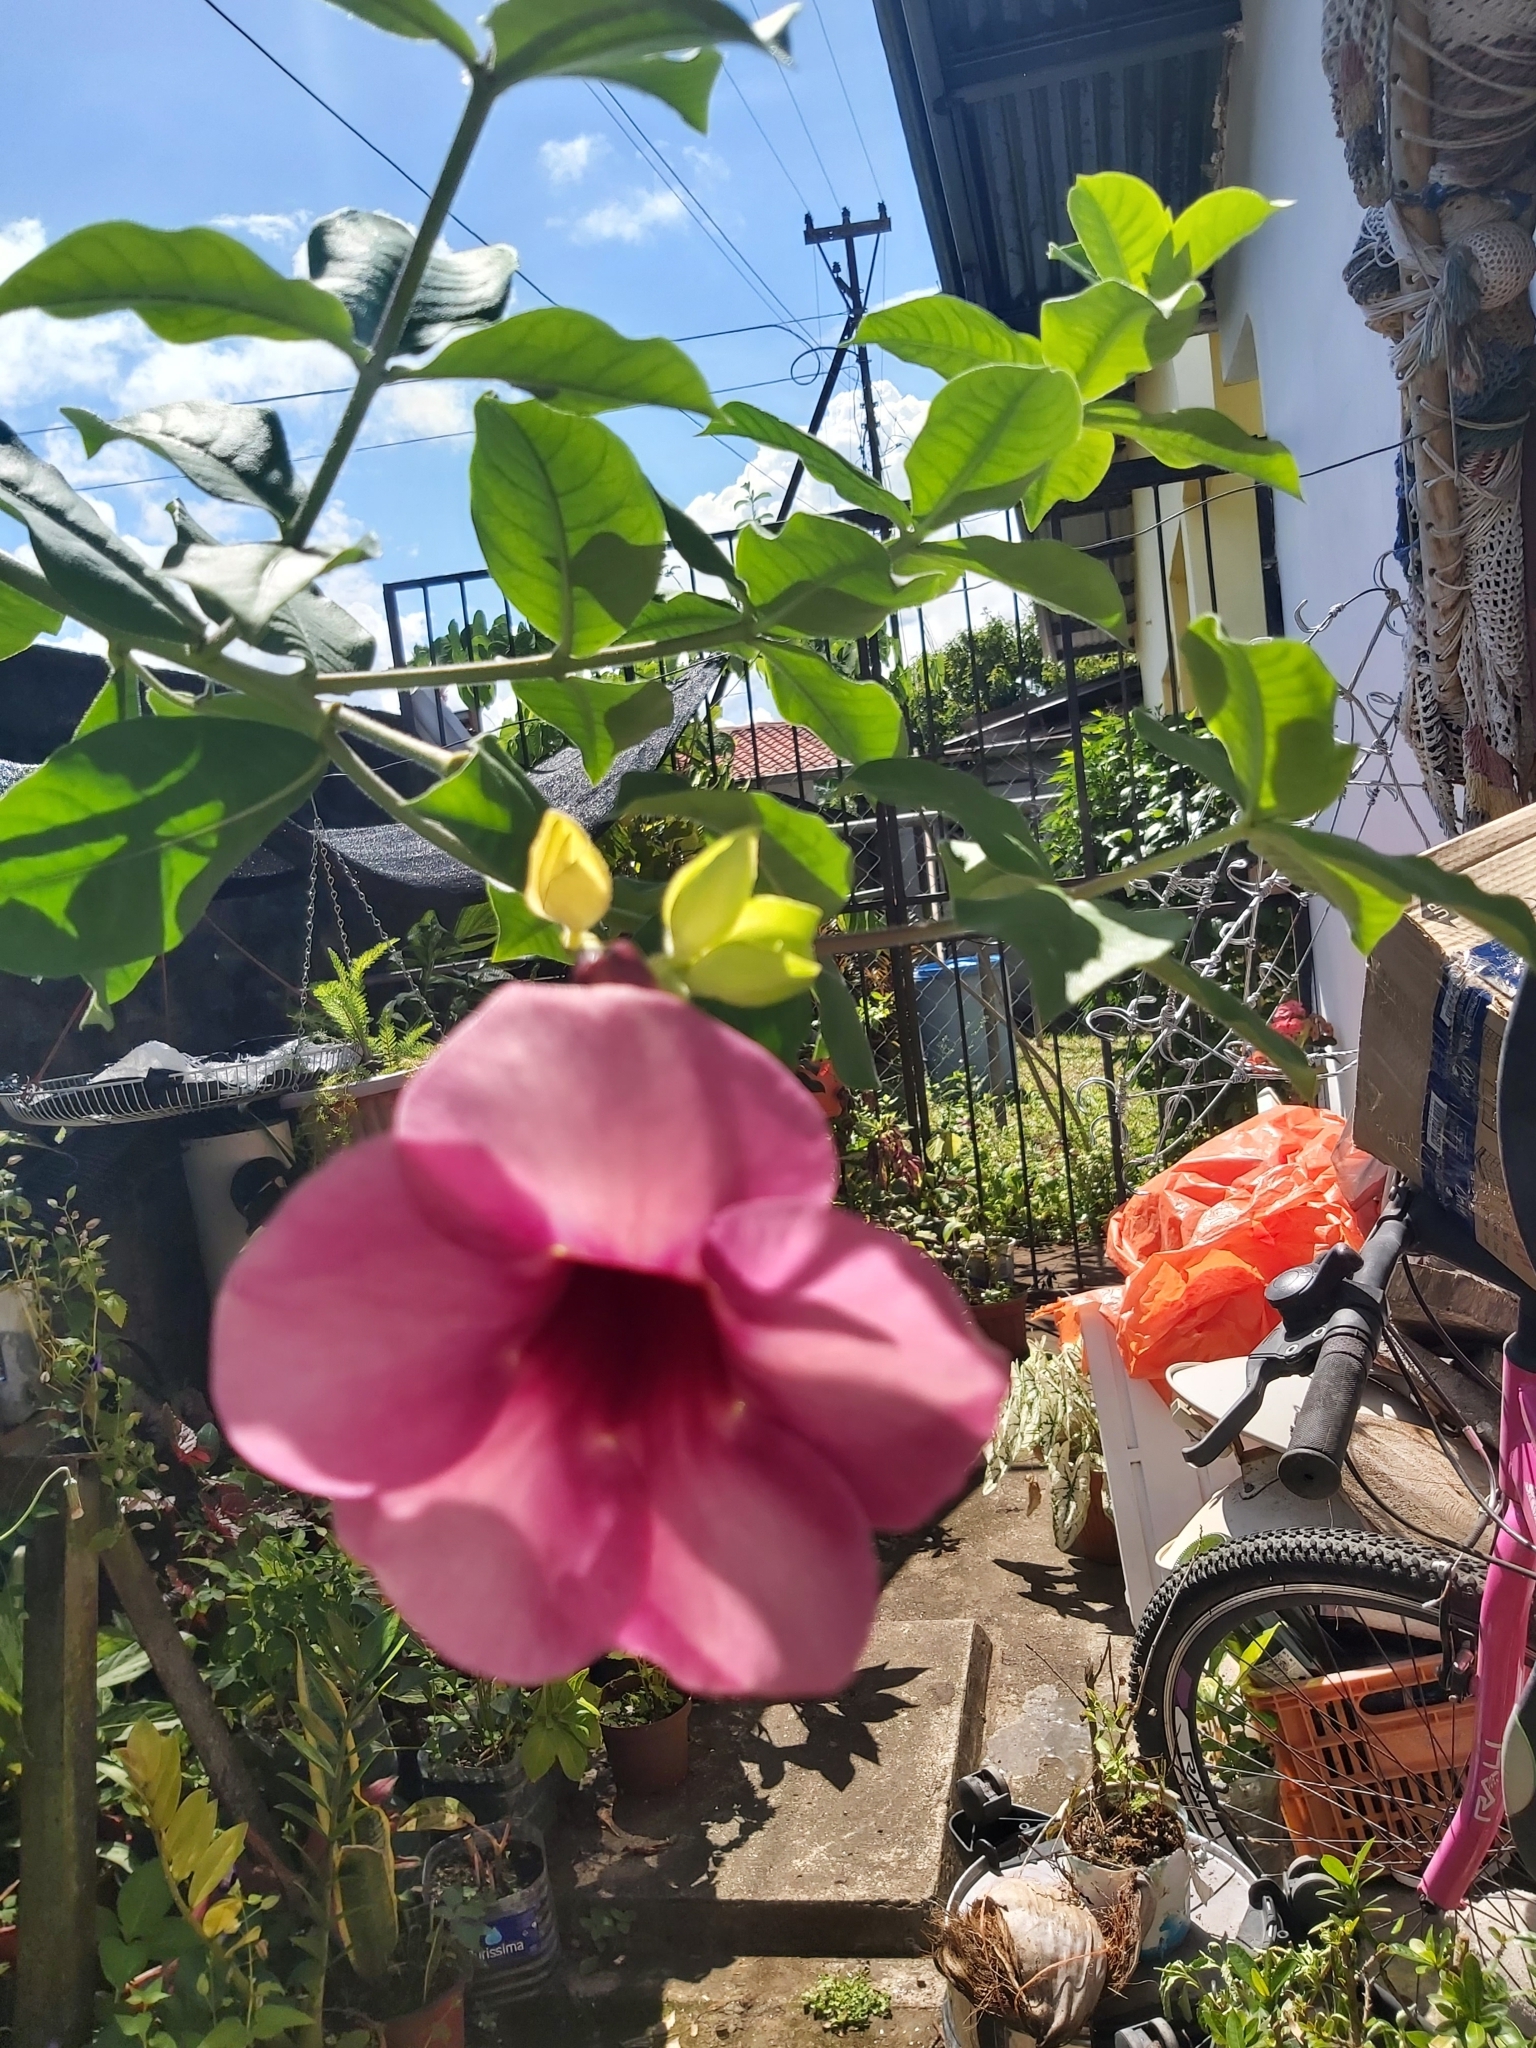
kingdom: Plantae
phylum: Tracheophyta
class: Magnoliopsida
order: Gentianales
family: Apocynaceae
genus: Allamanda
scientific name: Allamanda blanchetii
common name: Purple allamanda
